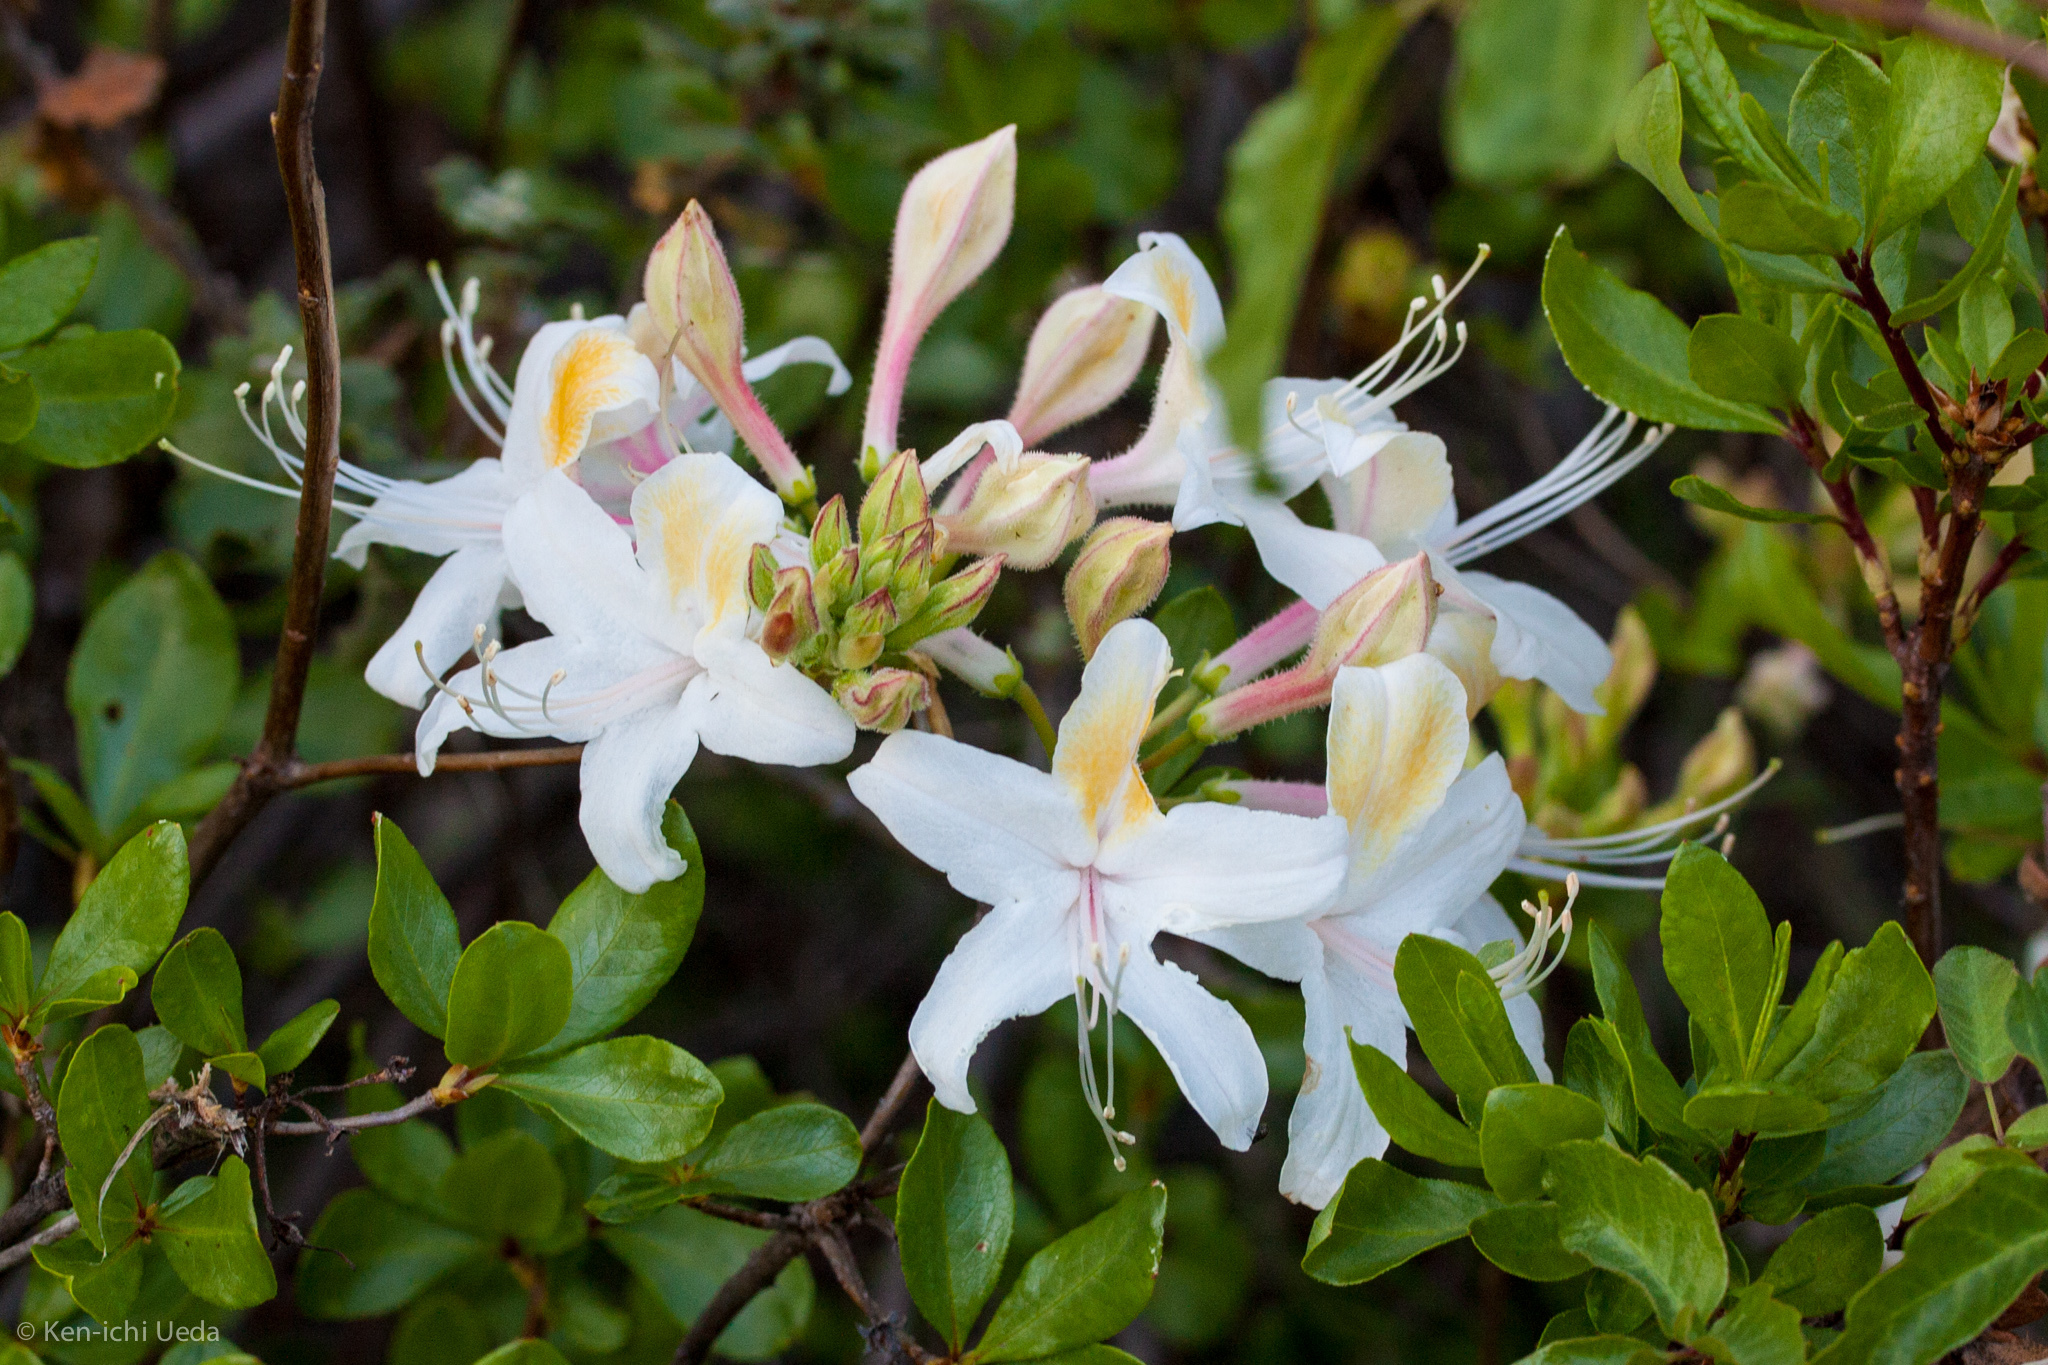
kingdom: Plantae
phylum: Tracheophyta
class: Magnoliopsida
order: Ericales
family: Ericaceae
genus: Rhododendron
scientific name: Rhododendron occidentale
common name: Western azalea
